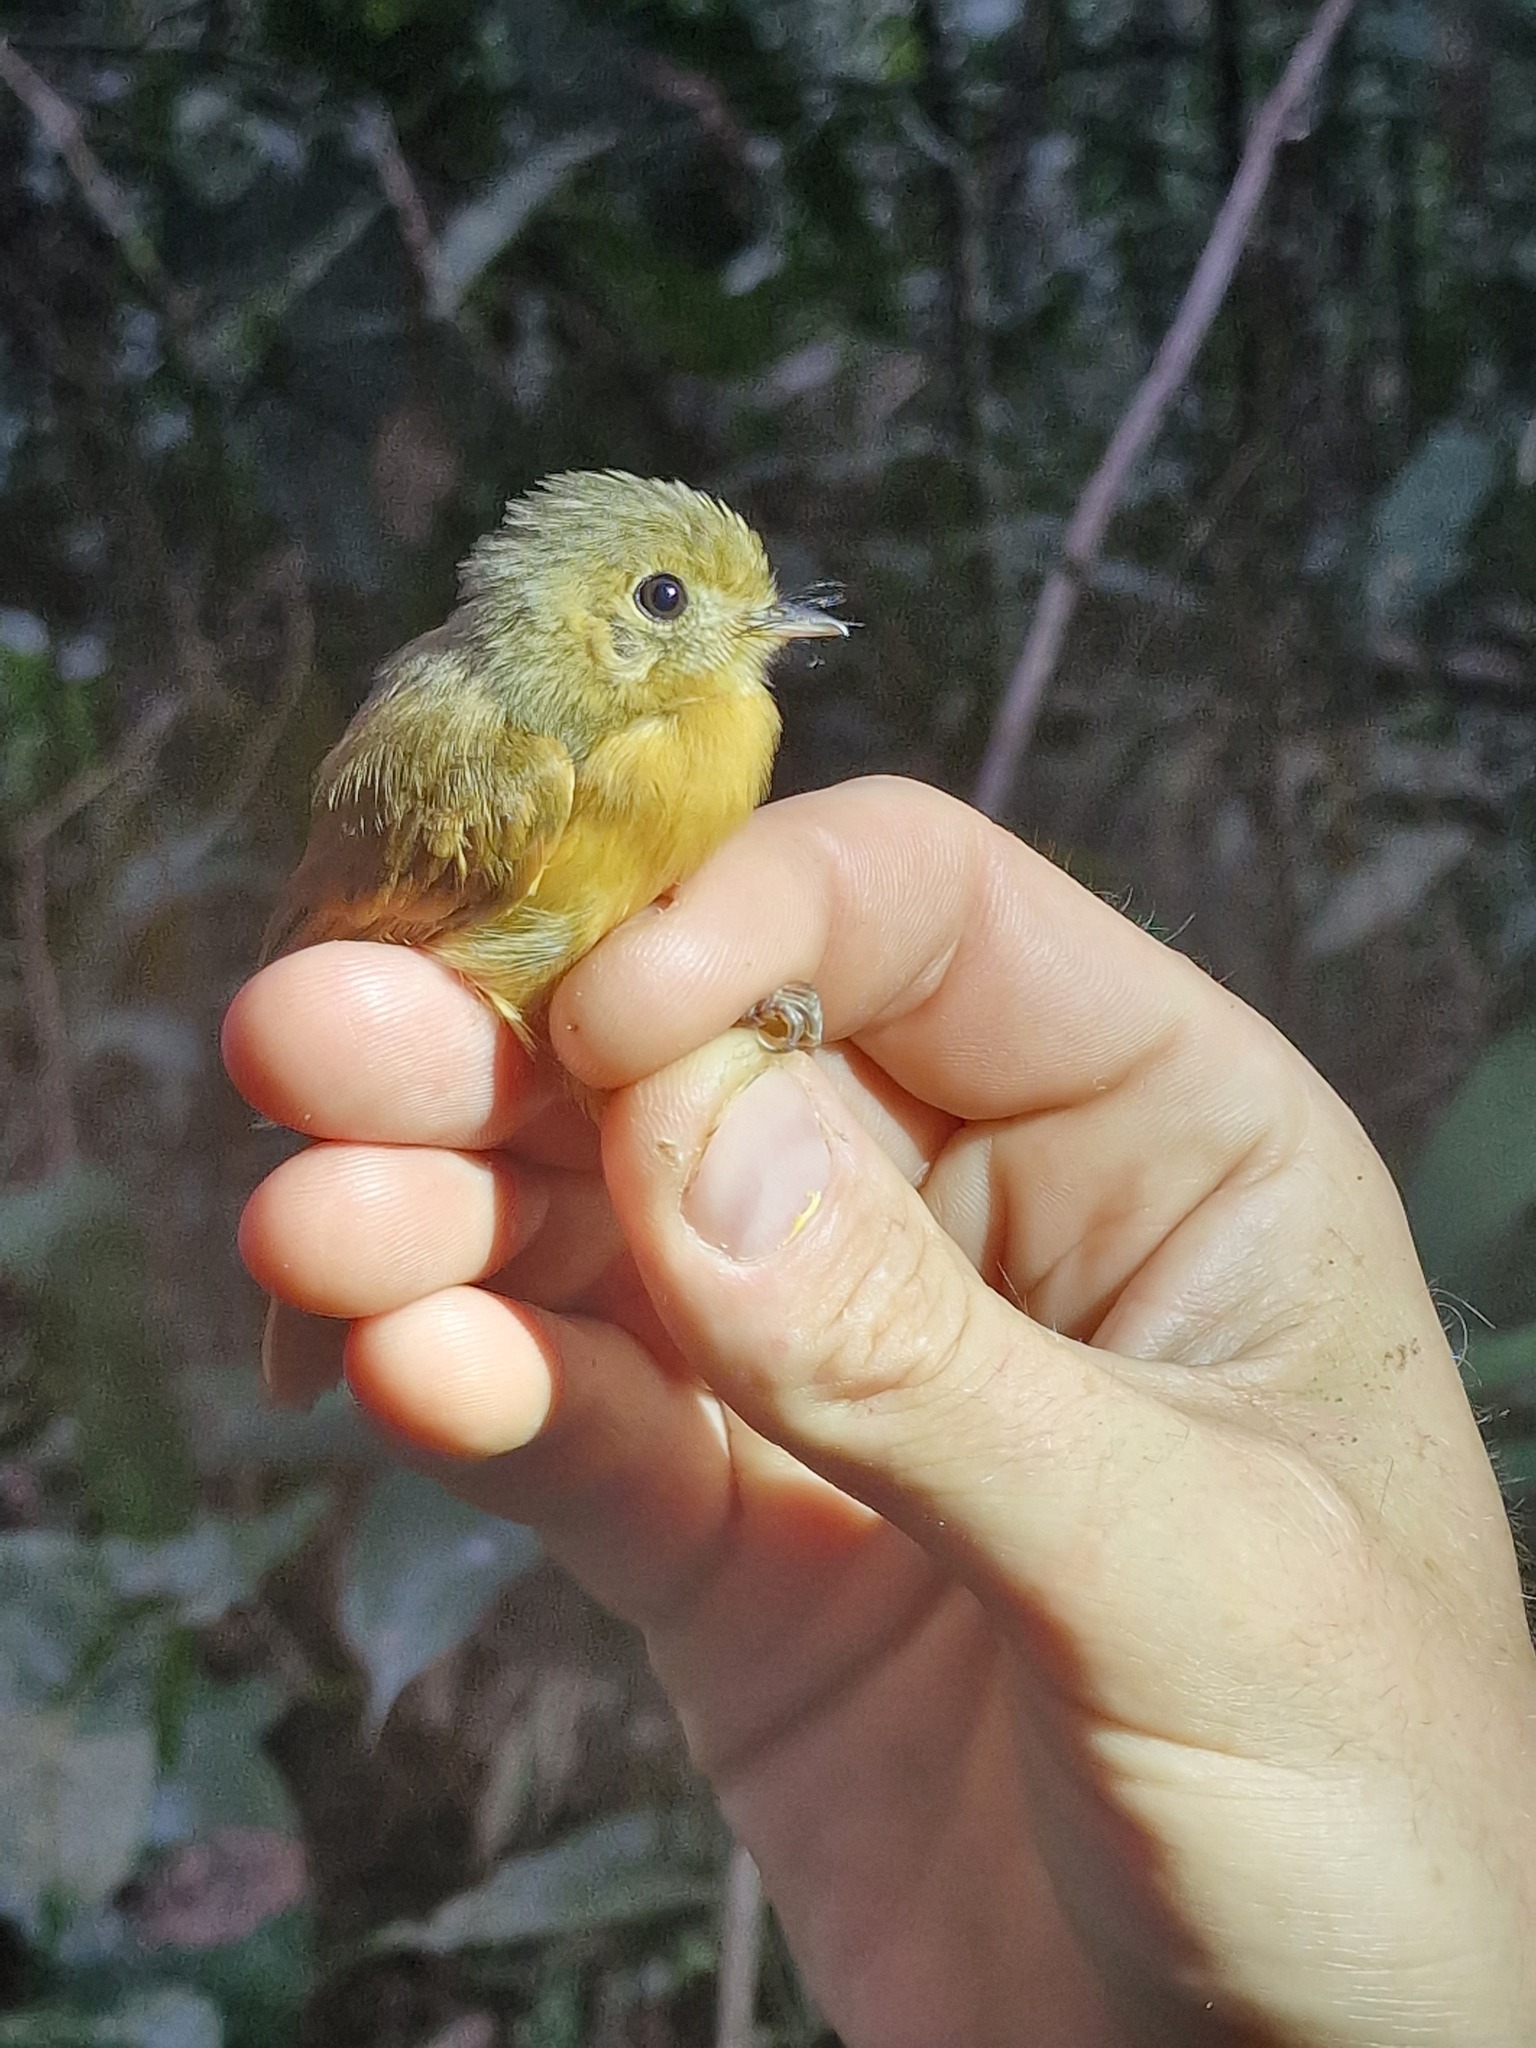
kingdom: Animalia
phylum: Chordata
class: Aves
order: Passeriformes
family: Tyrannidae
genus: Terenotriccus
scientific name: Terenotriccus erythrurus
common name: Ruddy-tailed flycatcher
